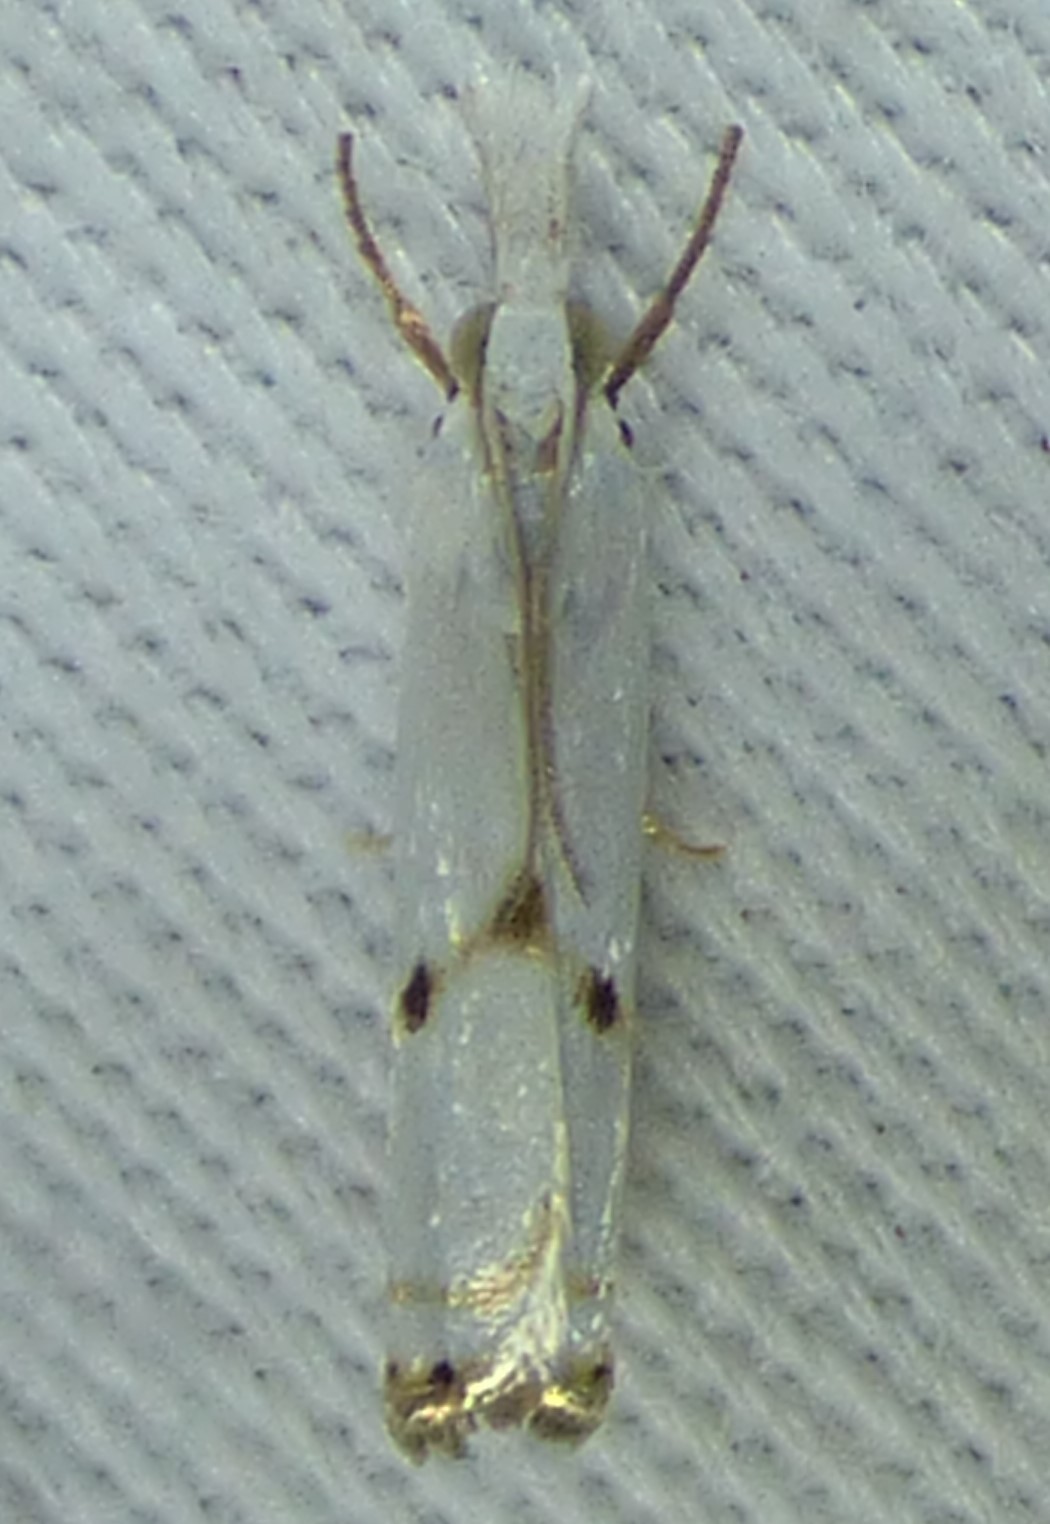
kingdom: Animalia
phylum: Arthropoda
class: Insecta
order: Lepidoptera
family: Crambidae
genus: Microcrambus
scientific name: Microcrambus biguttellus
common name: Gold-stripe grass-veneer moth
